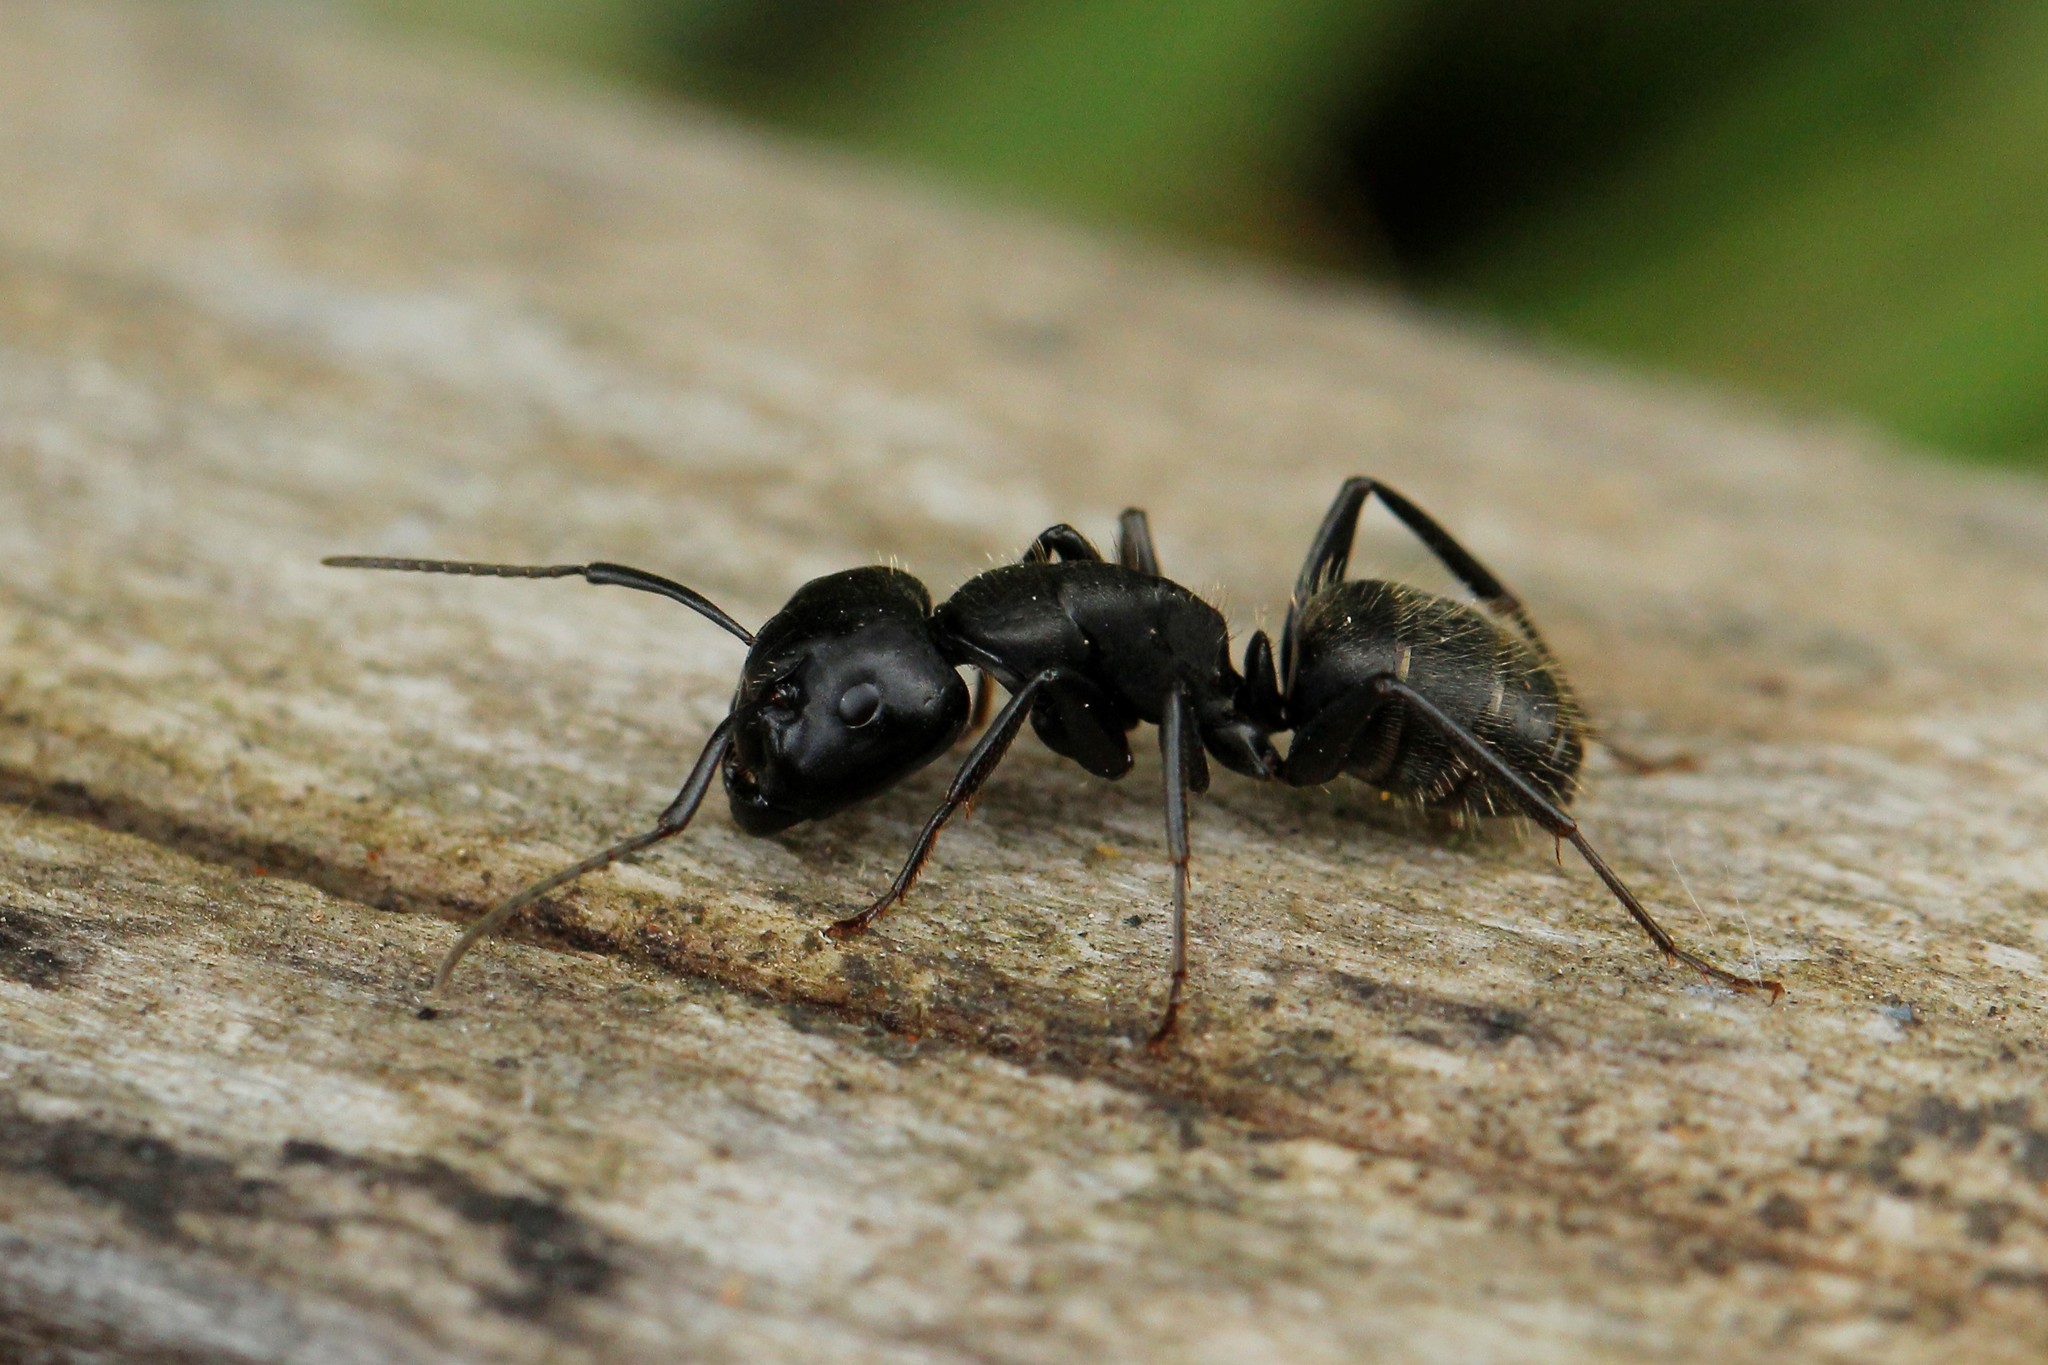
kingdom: Animalia
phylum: Arthropoda
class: Insecta
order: Hymenoptera
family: Formicidae
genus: Camponotus
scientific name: Camponotus vagus
